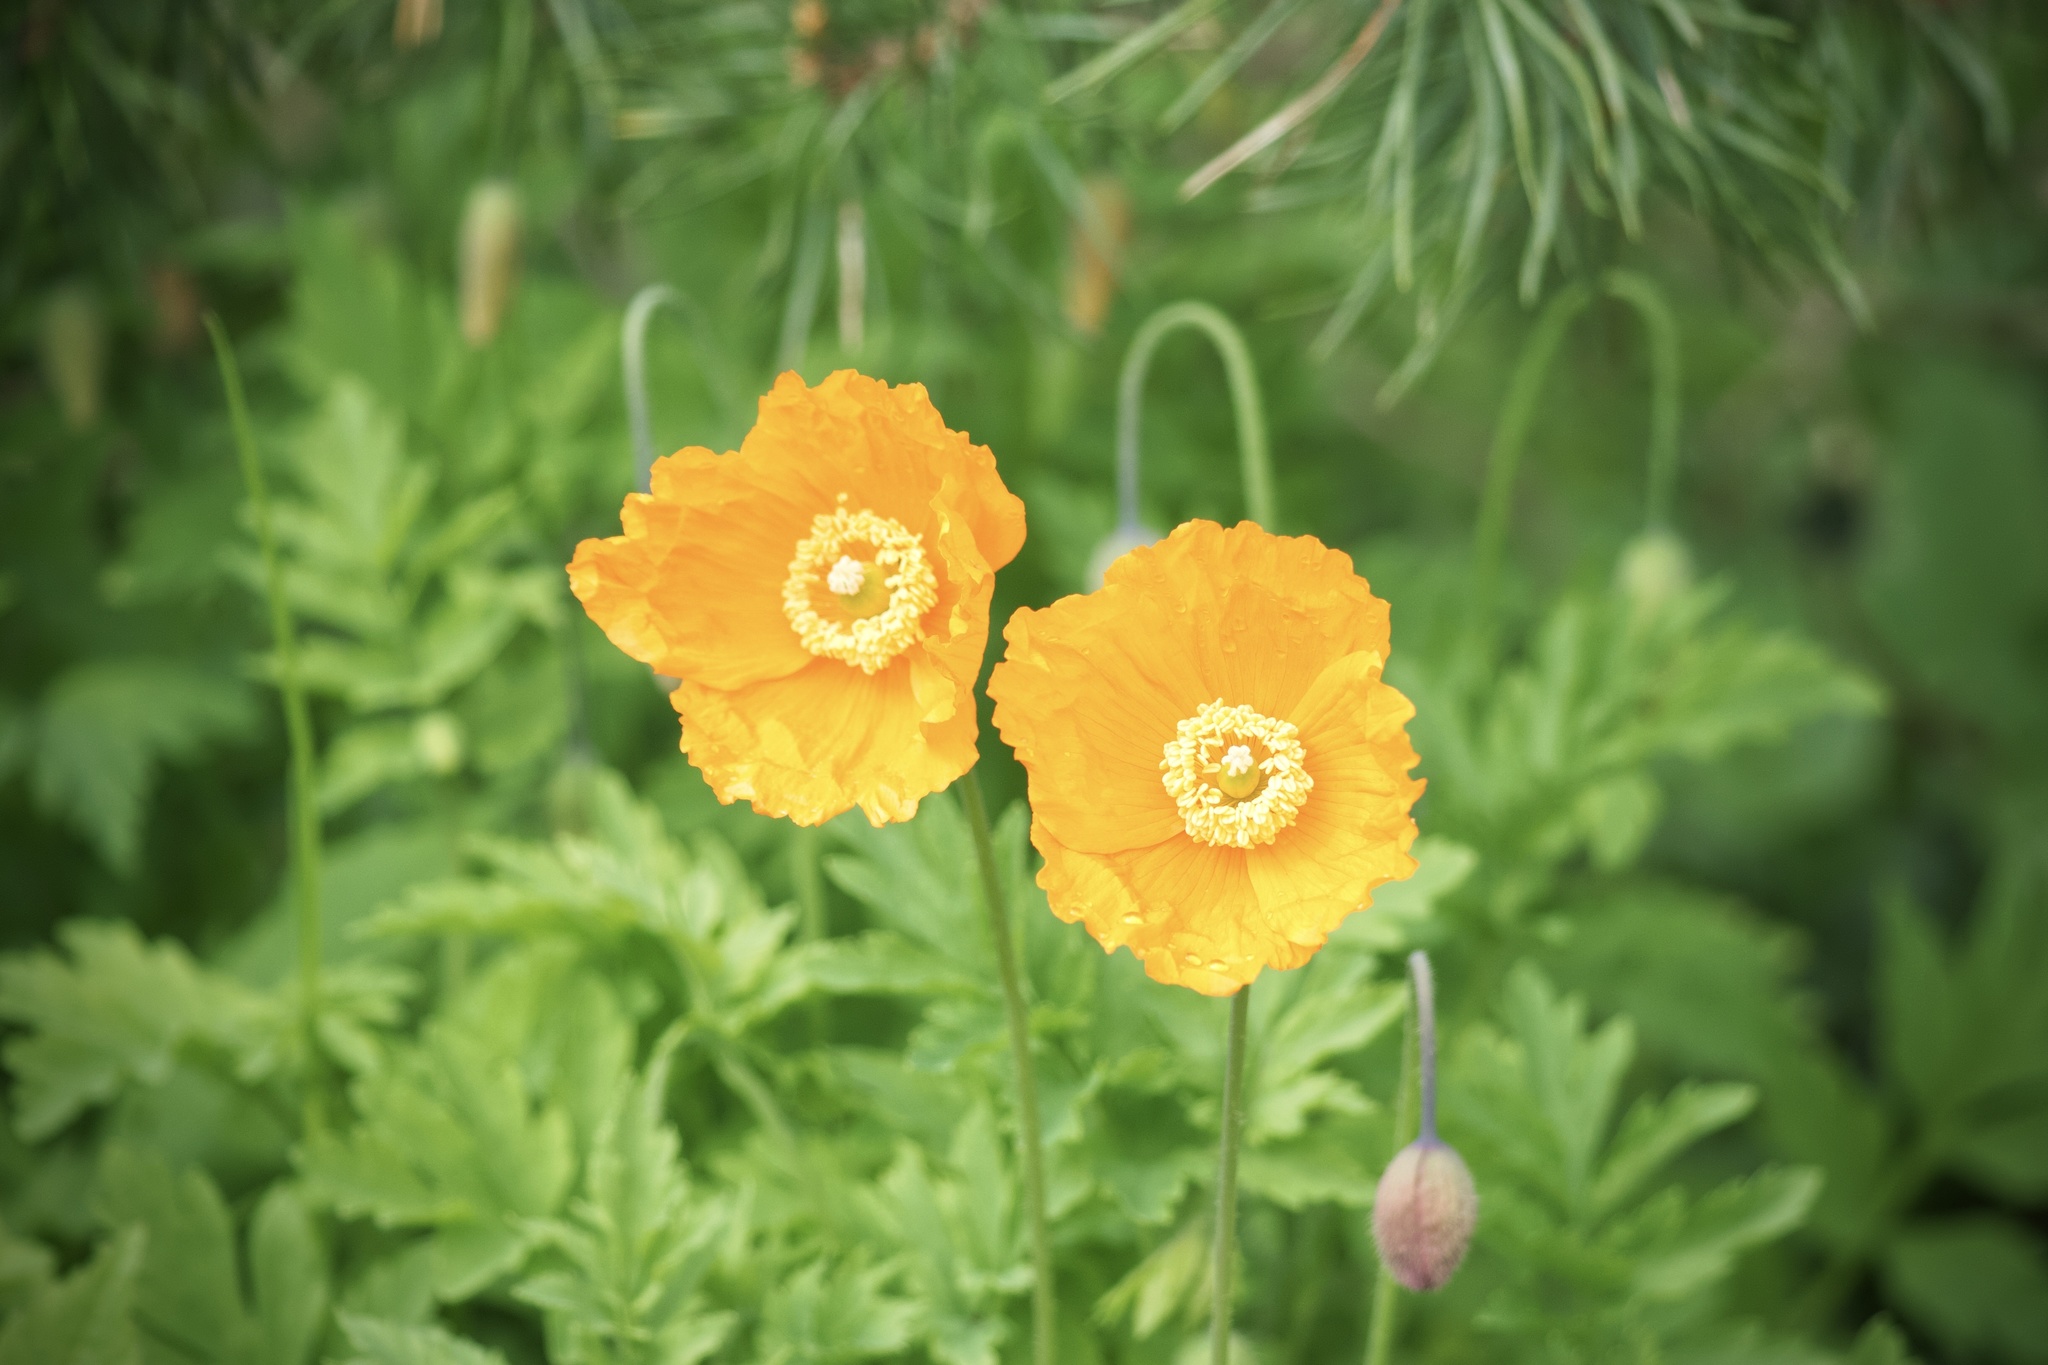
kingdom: Plantae
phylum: Tracheophyta
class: Magnoliopsida
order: Ranunculales
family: Papaveraceae
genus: Papaver
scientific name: Papaver cambricum
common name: Poppy
